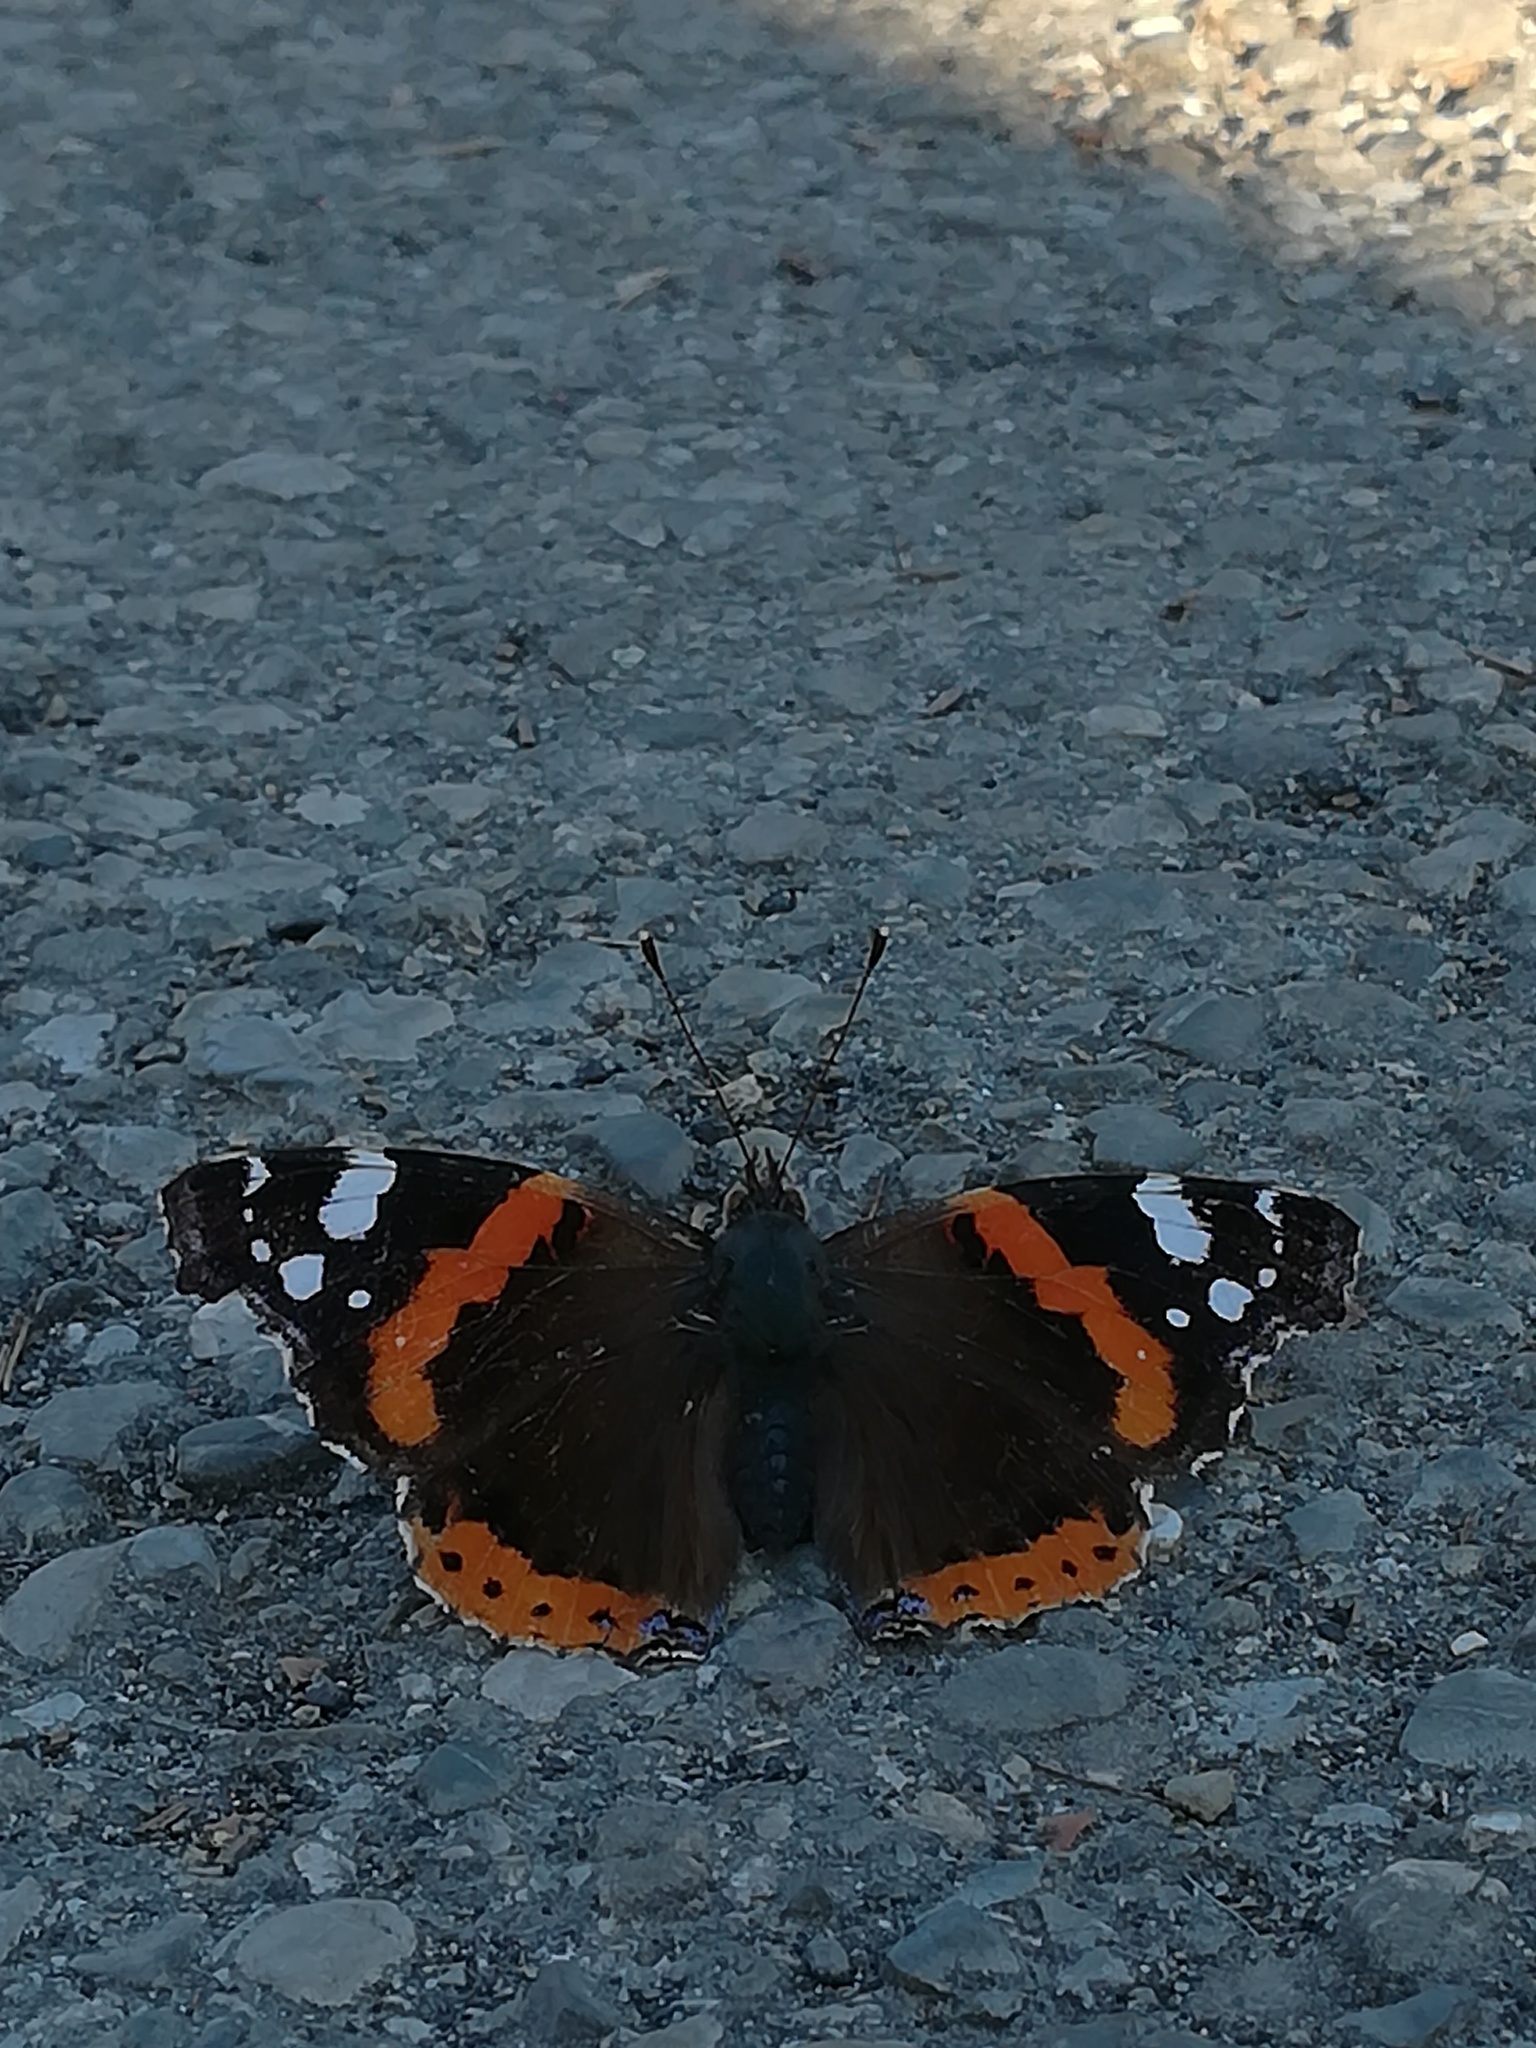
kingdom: Animalia
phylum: Arthropoda
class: Insecta
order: Lepidoptera
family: Nymphalidae
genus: Vanessa
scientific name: Vanessa atalanta
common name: Red admiral
